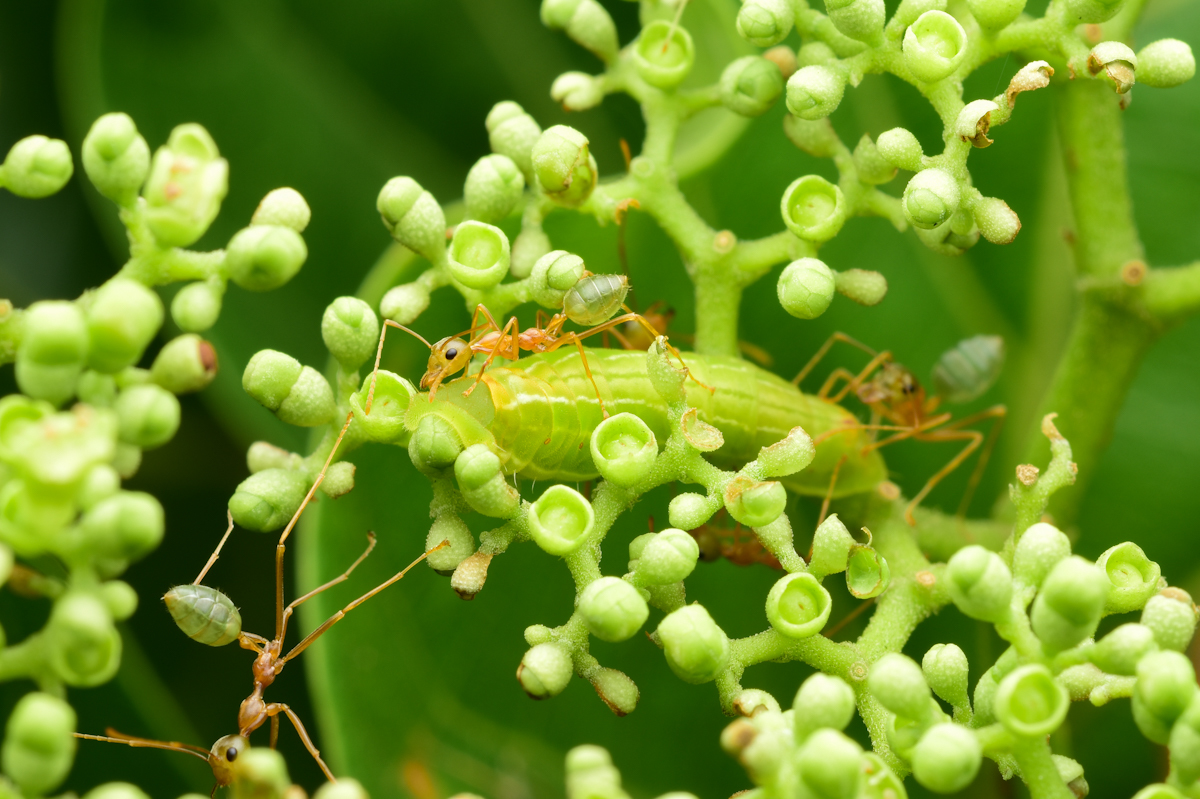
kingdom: Animalia
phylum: Arthropoda
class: Insecta
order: Hymenoptera
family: Formicidae
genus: Oecophylla
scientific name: Oecophylla smaragdina
